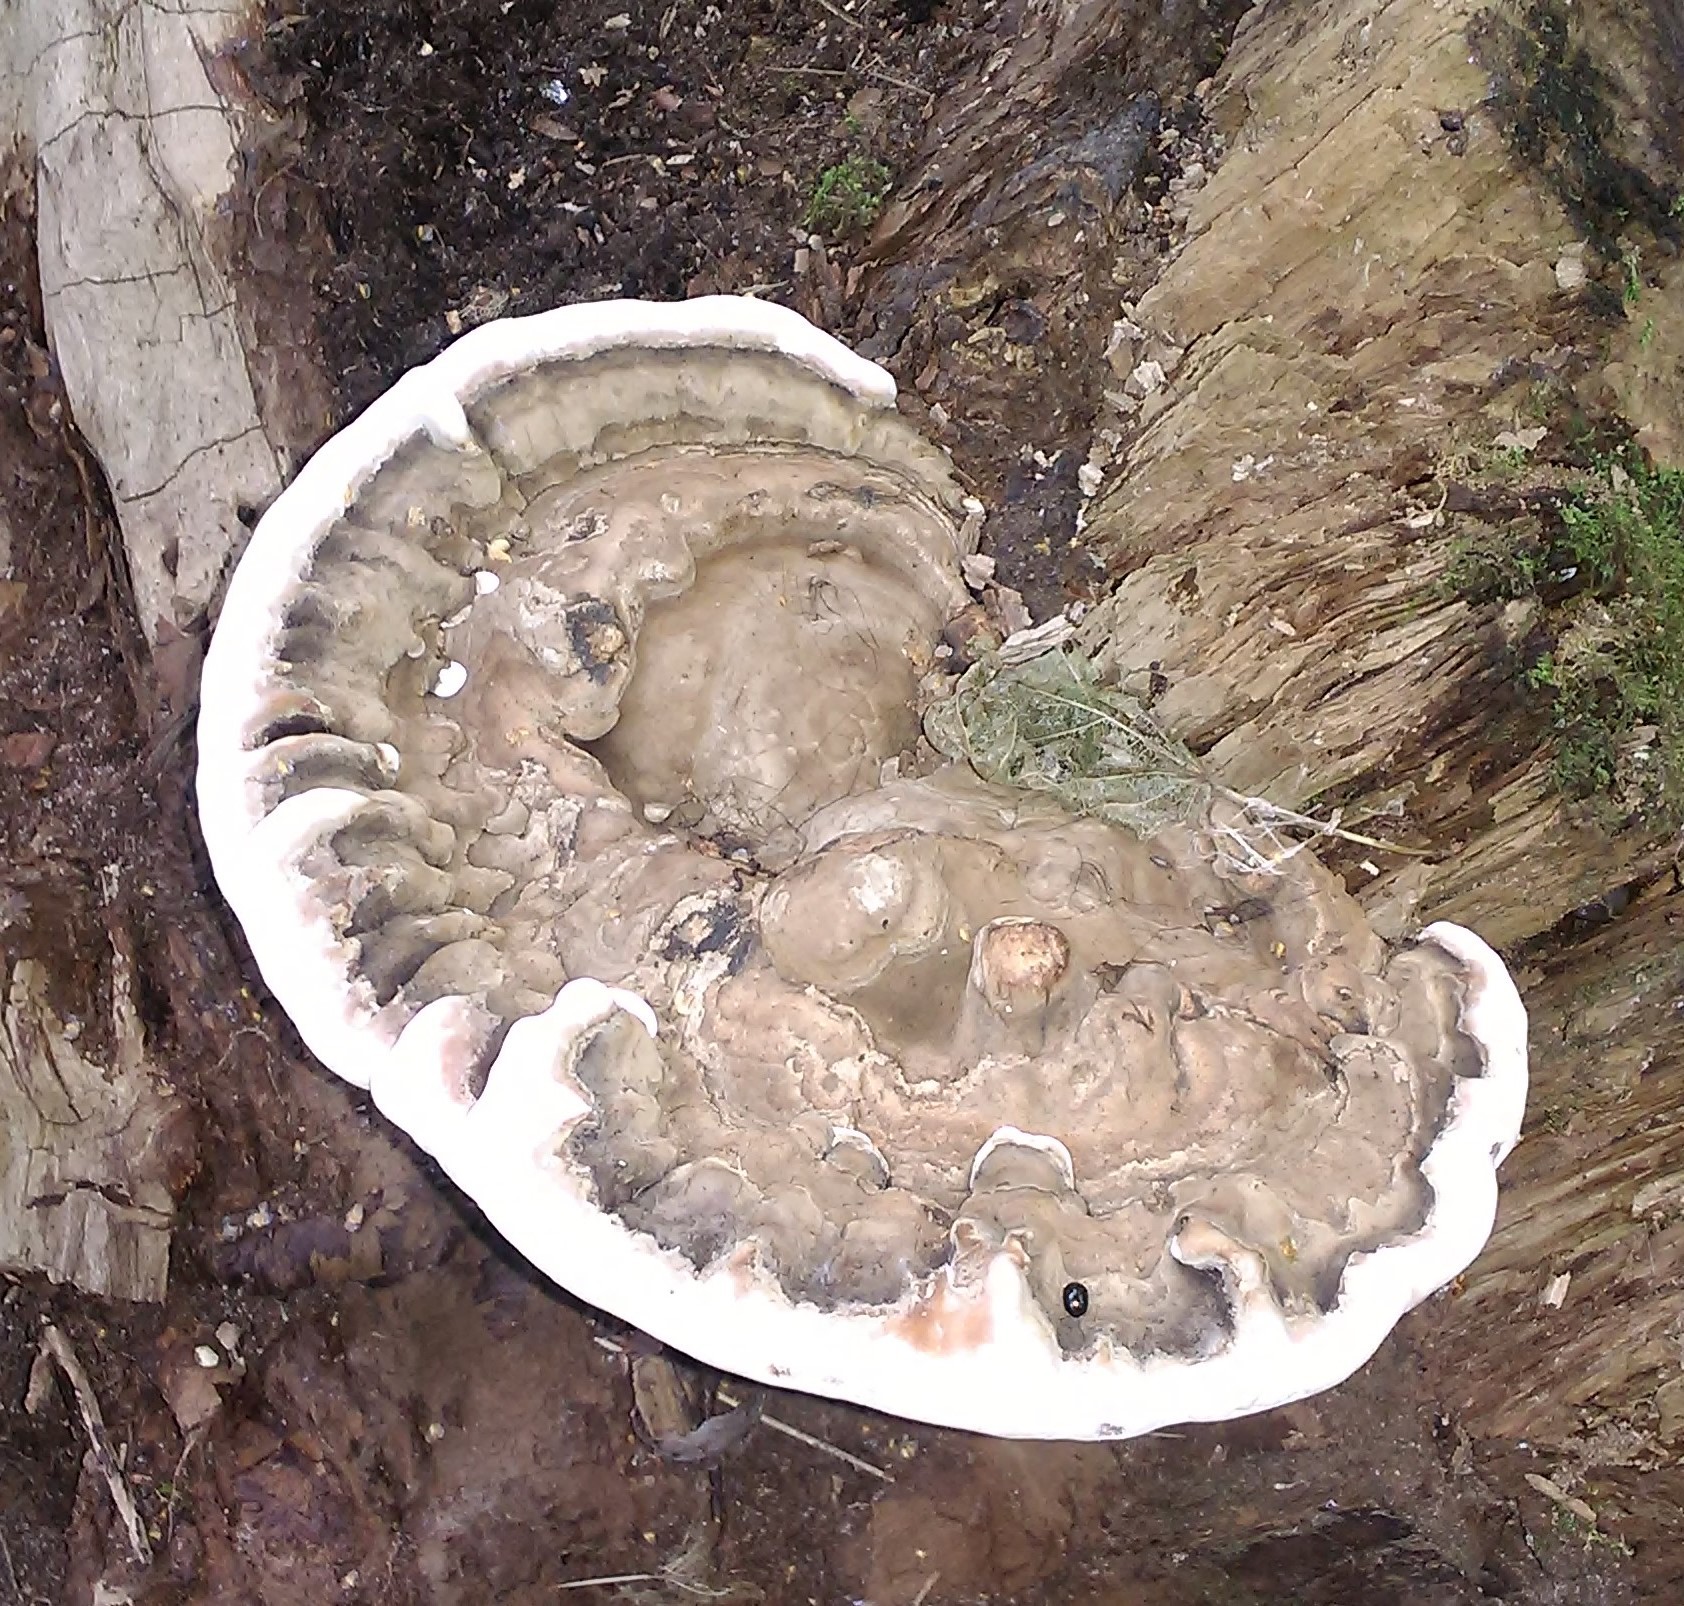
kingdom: Fungi
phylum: Basidiomycota
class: Agaricomycetes
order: Polyporales
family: Polyporaceae
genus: Ganoderma
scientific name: Ganoderma applanatum
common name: Artist's bracket
